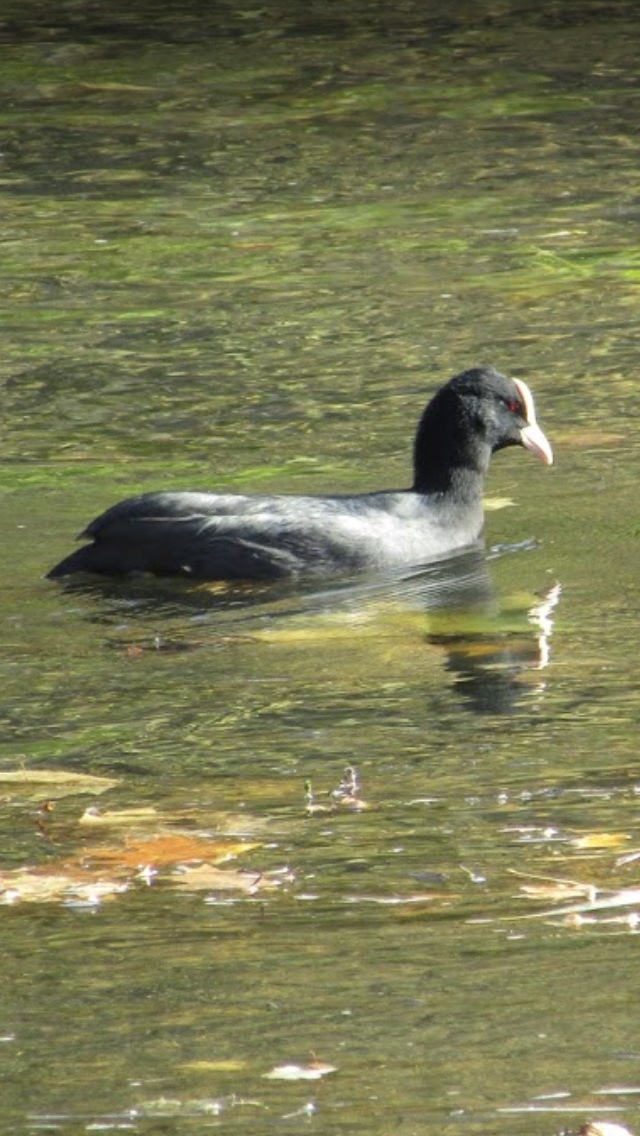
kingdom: Animalia
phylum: Chordata
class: Aves
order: Gruiformes
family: Rallidae
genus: Fulica
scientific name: Fulica atra
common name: Eurasian coot
